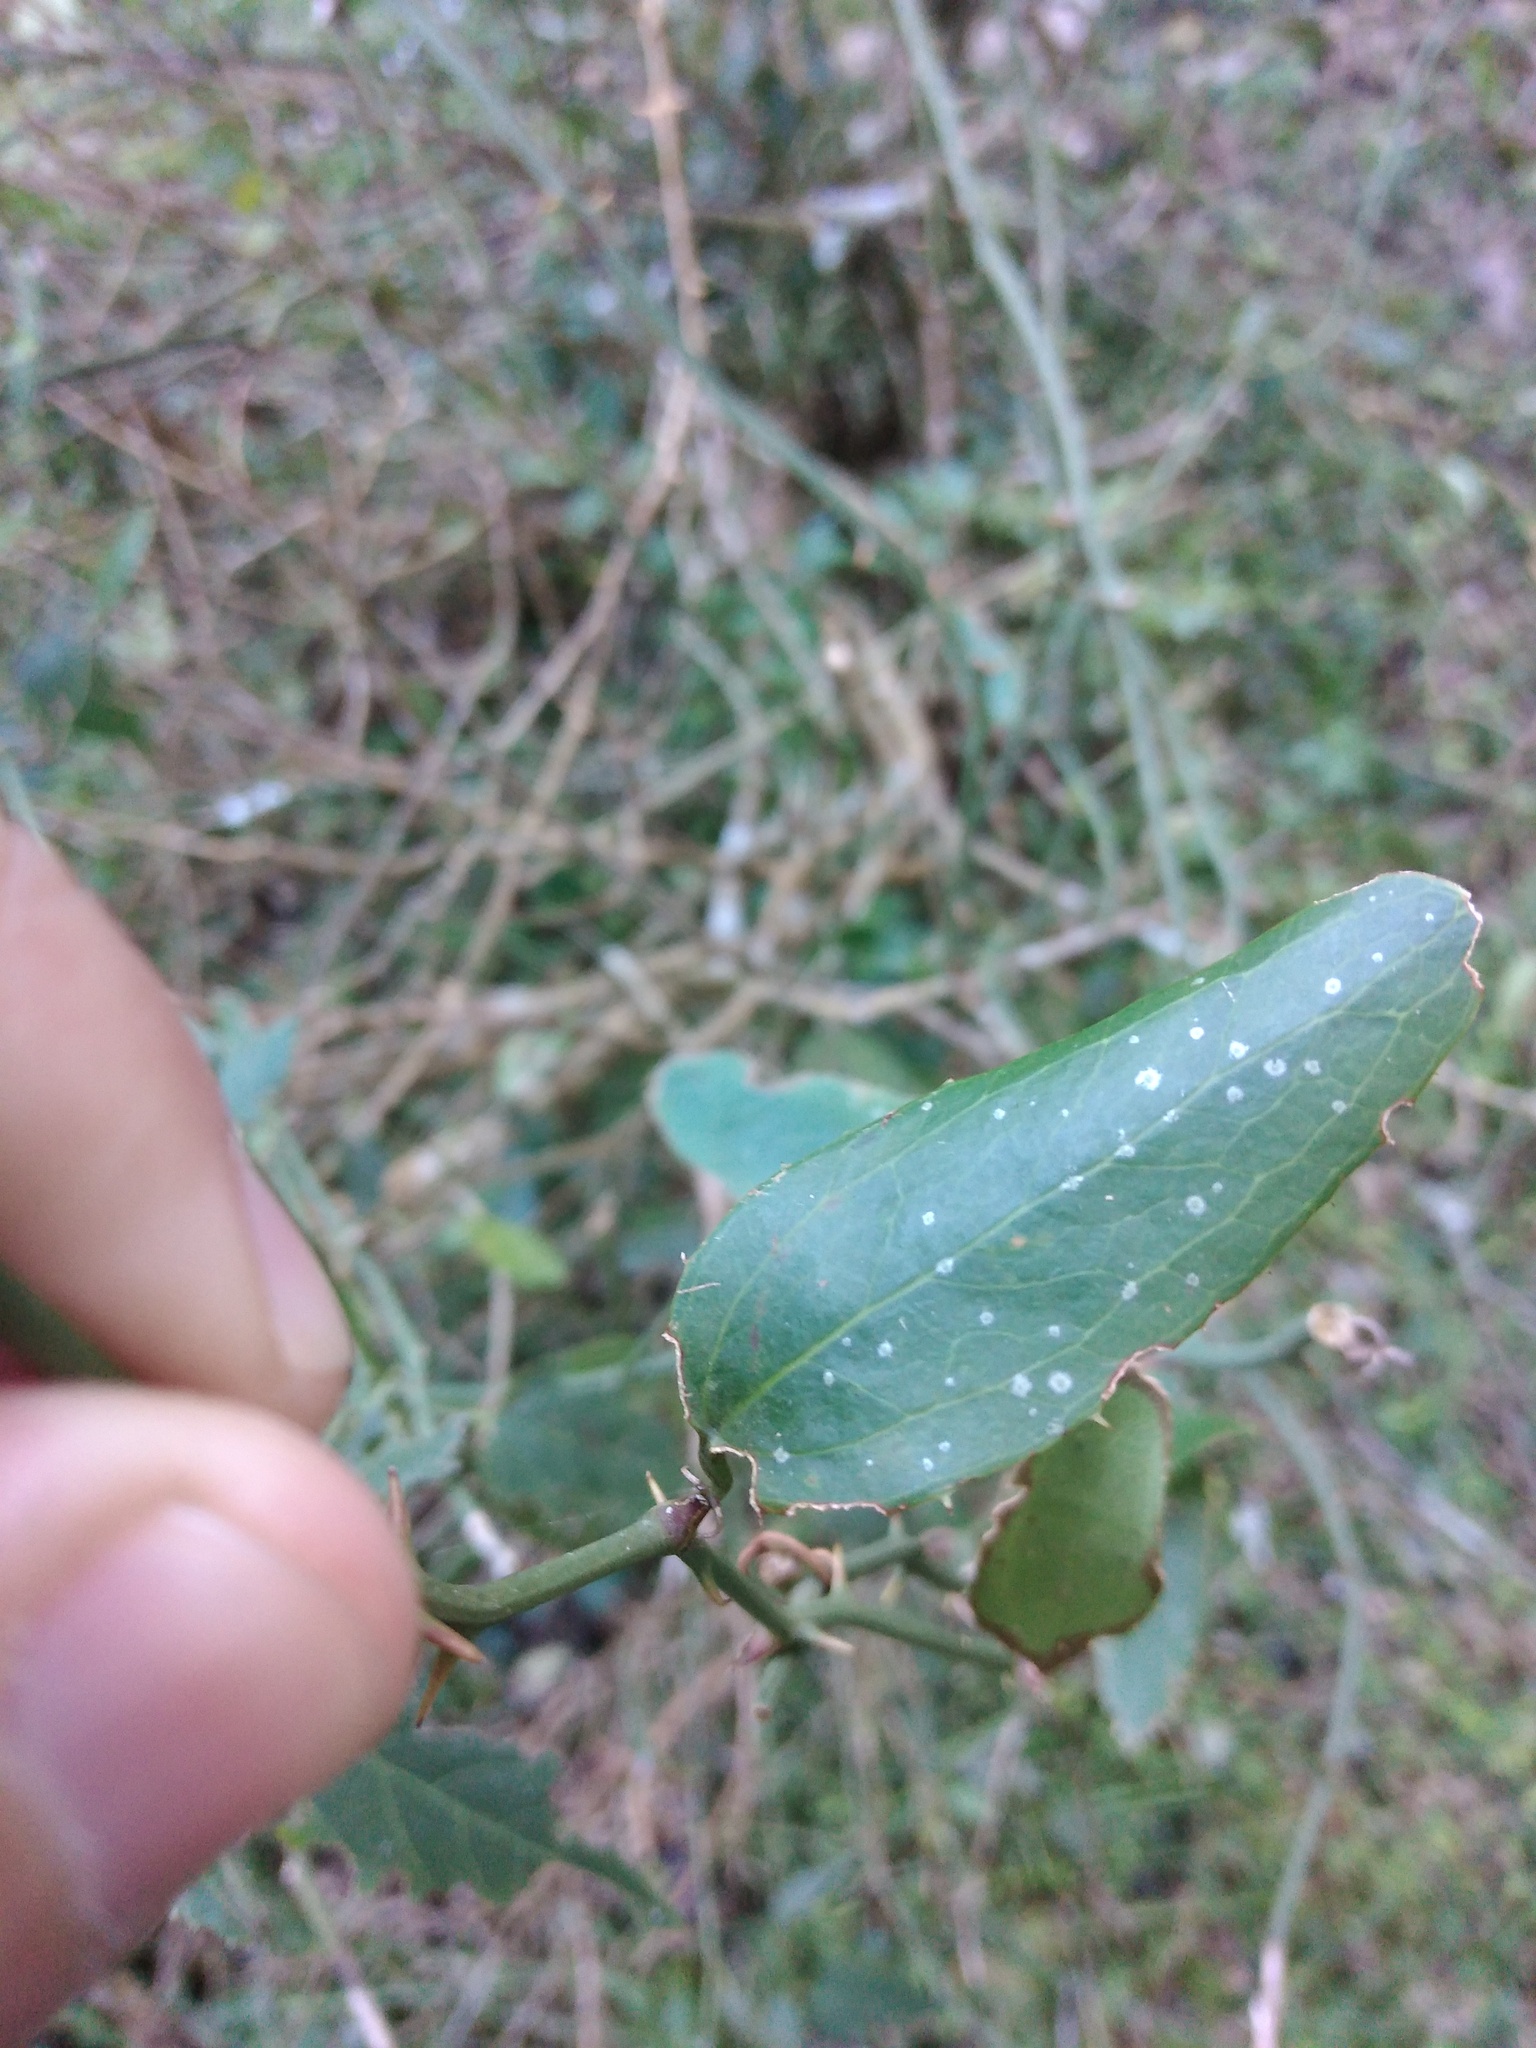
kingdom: Plantae
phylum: Tracheophyta
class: Liliopsida
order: Liliales
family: Smilacaceae
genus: Smilax
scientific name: Smilax campestris
